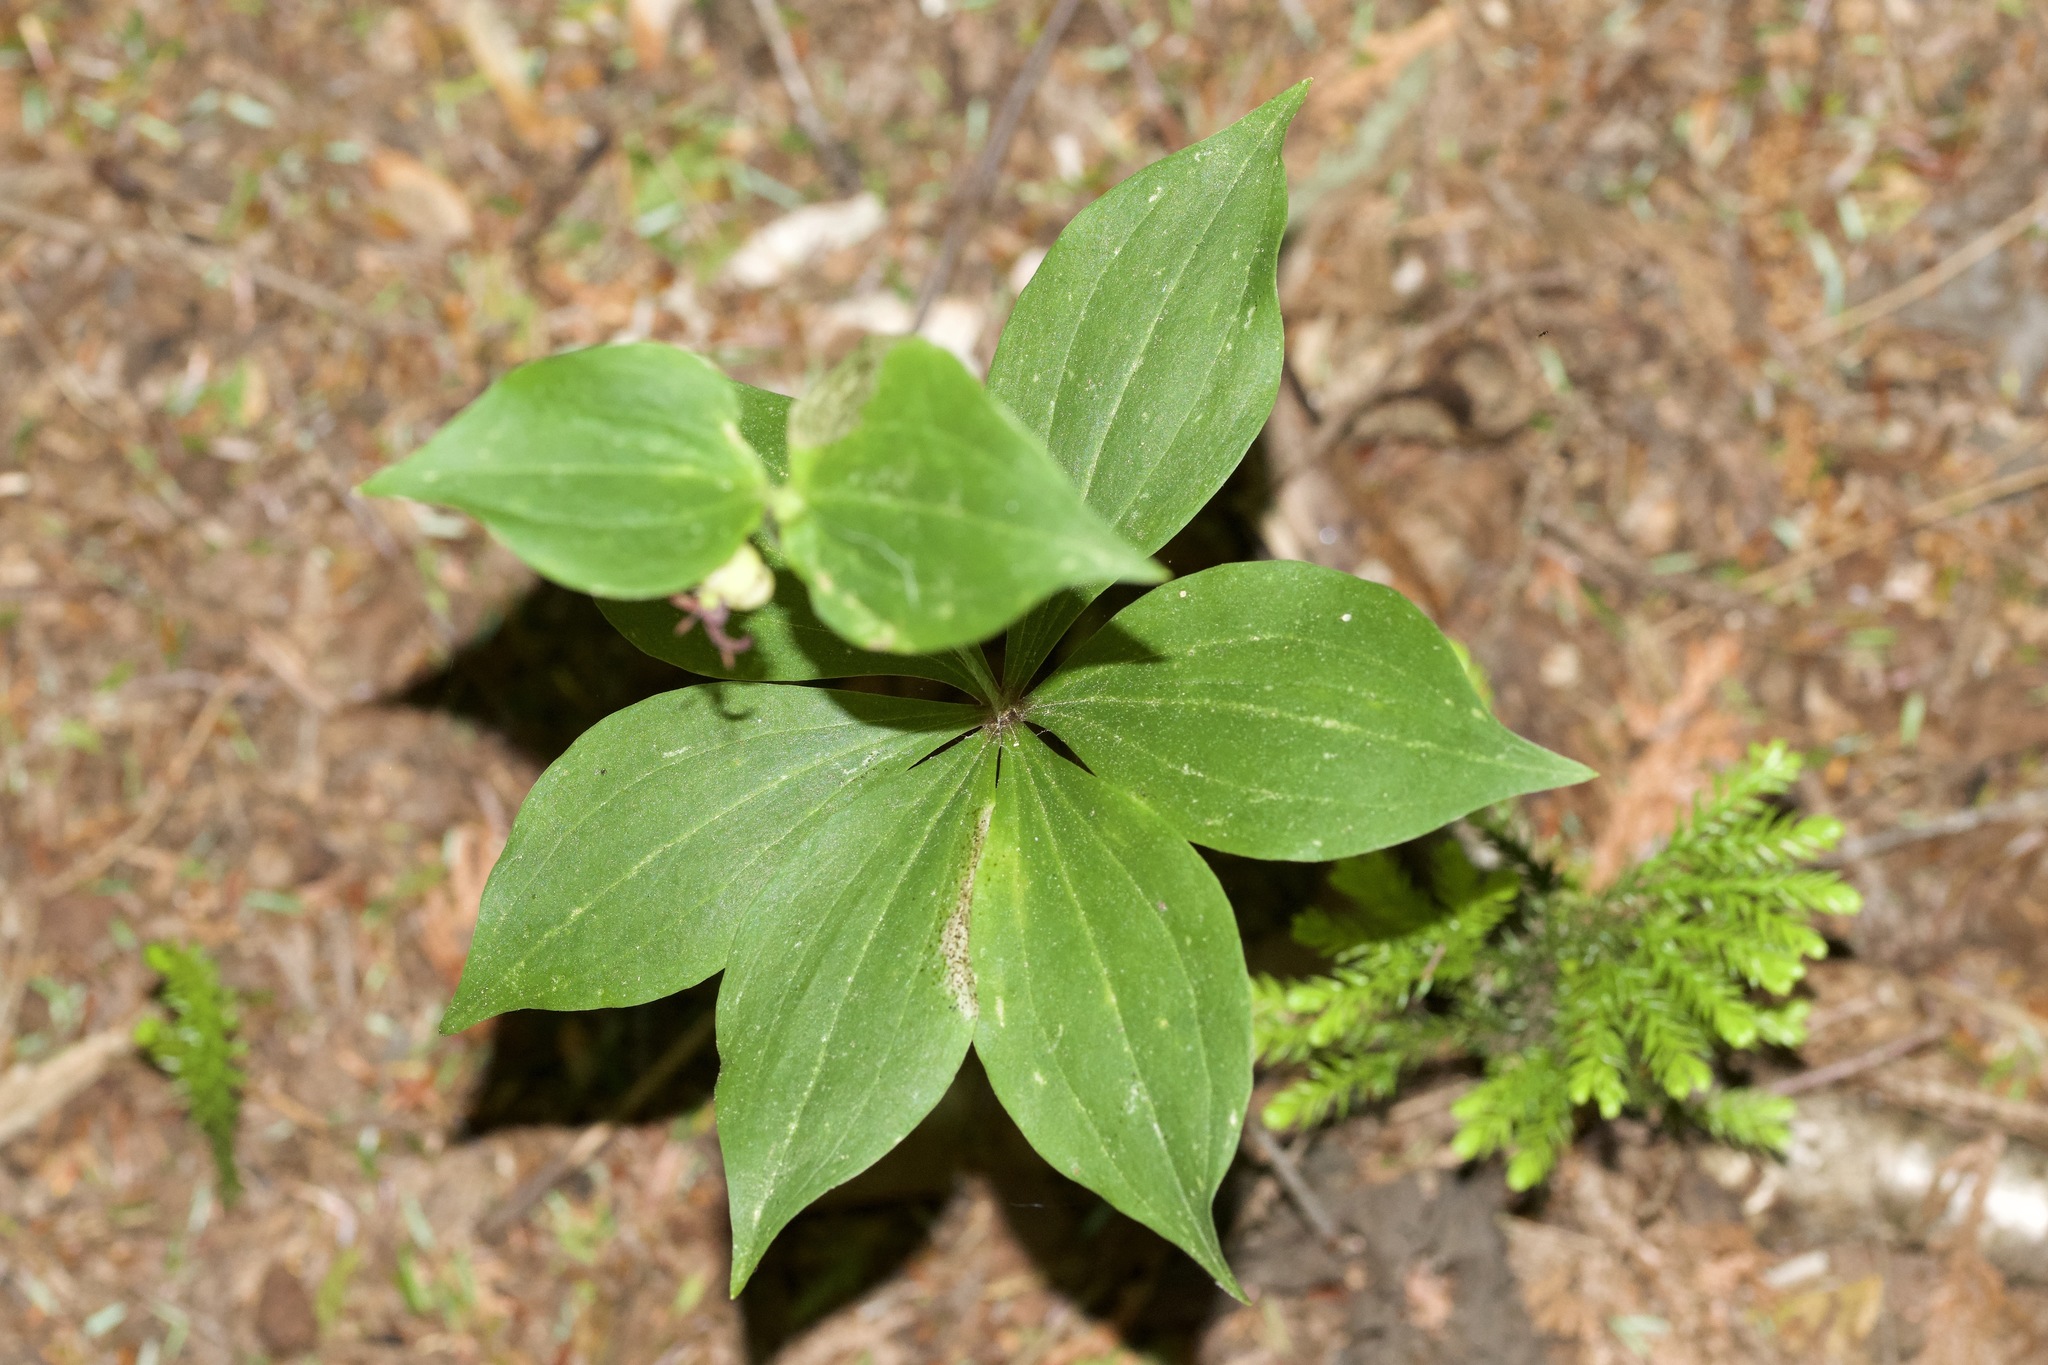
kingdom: Plantae
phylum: Tracheophyta
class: Liliopsida
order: Liliales
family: Liliaceae
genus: Medeola
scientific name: Medeola virginiana
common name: Indian cucumber-root
